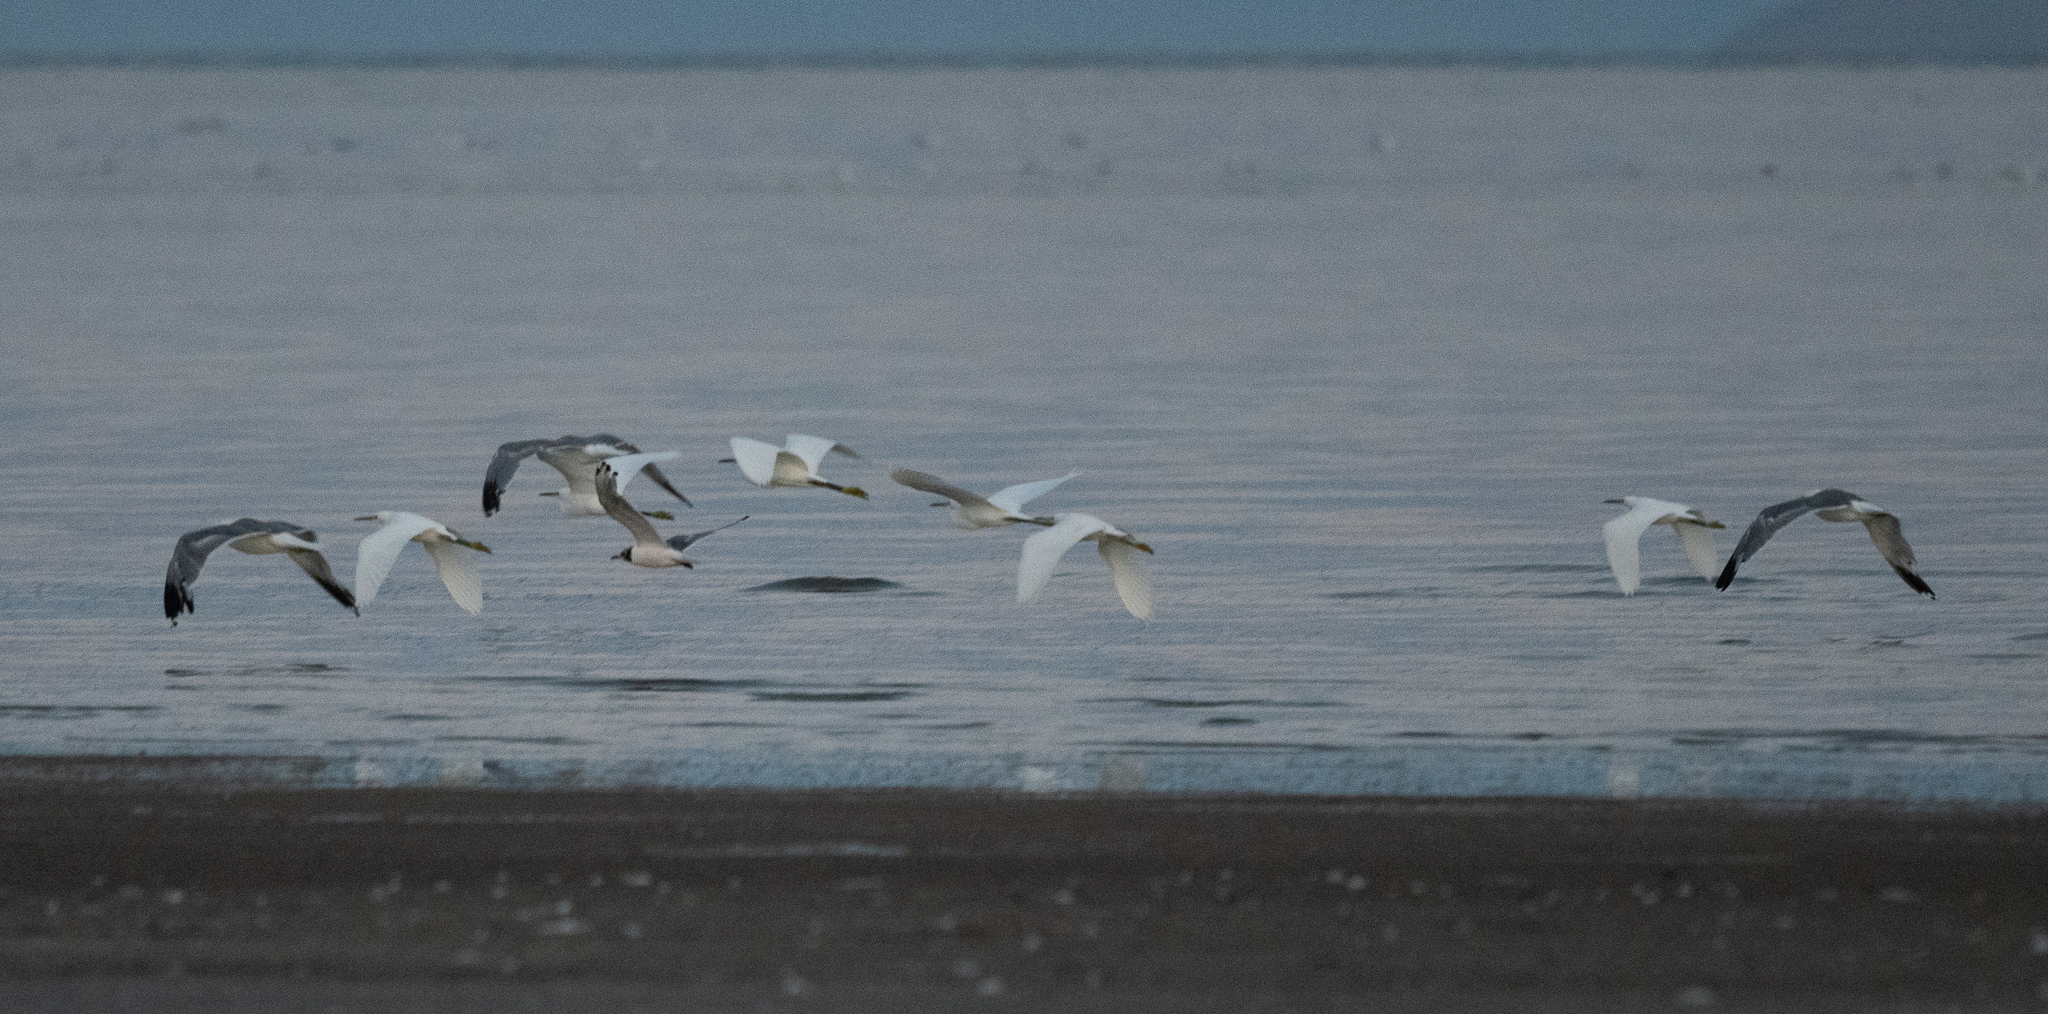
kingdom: Animalia
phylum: Chordata
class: Aves
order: Pelecaniformes
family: Ardeidae
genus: Egretta
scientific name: Egretta thula
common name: Snowy egret
